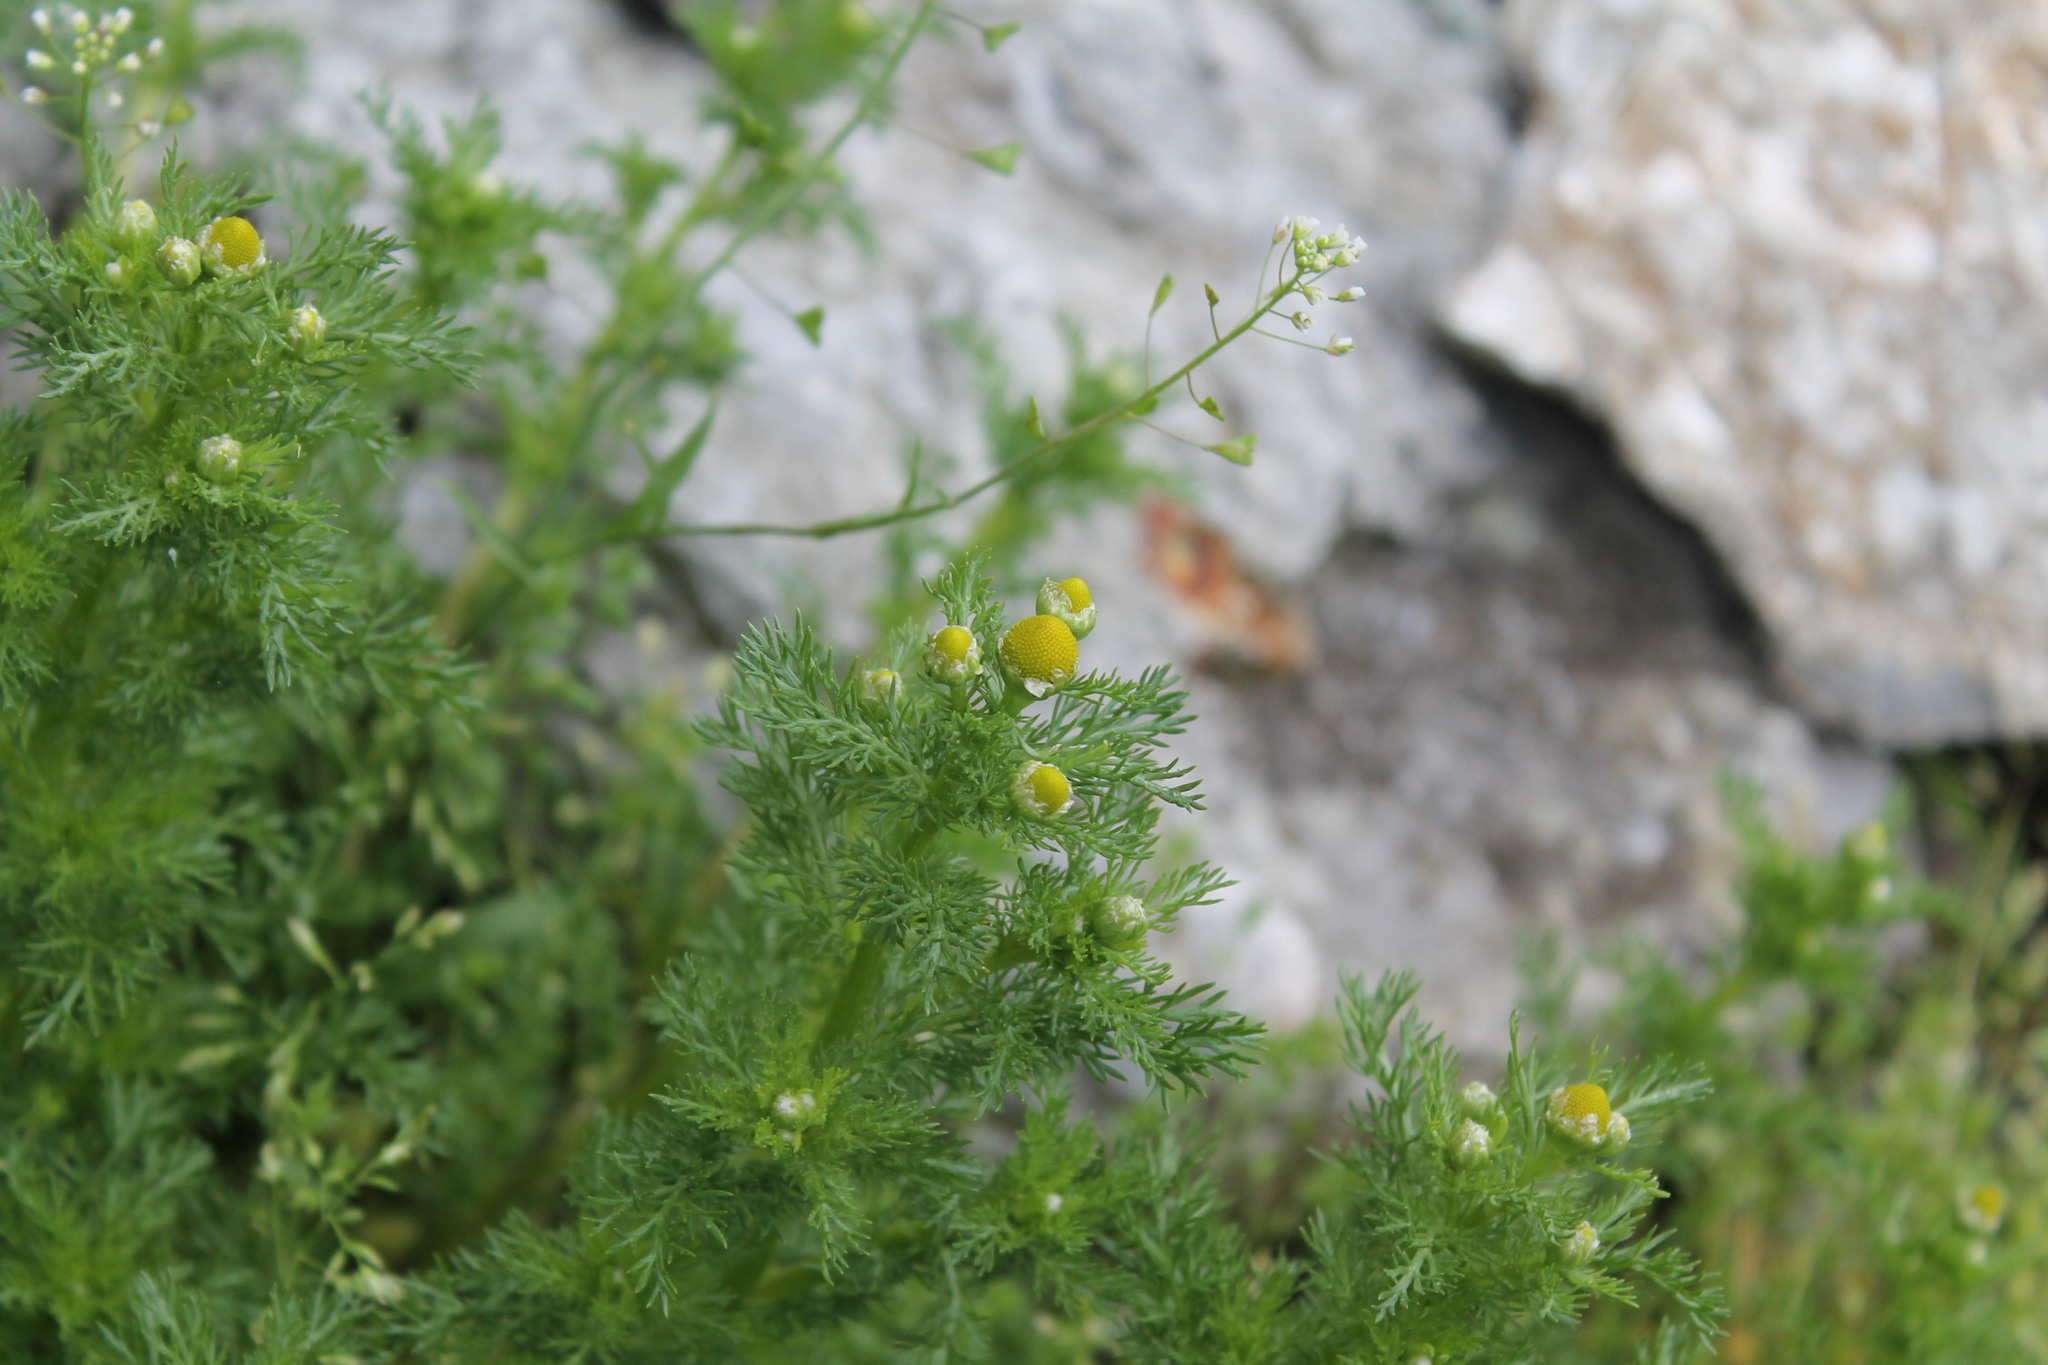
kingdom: Plantae
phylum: Tracheophyta
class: Magnoliopsida
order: Asterales
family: Asteraceae
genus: Matricaria
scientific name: Matricaria discoidea
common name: Disc mayweed
